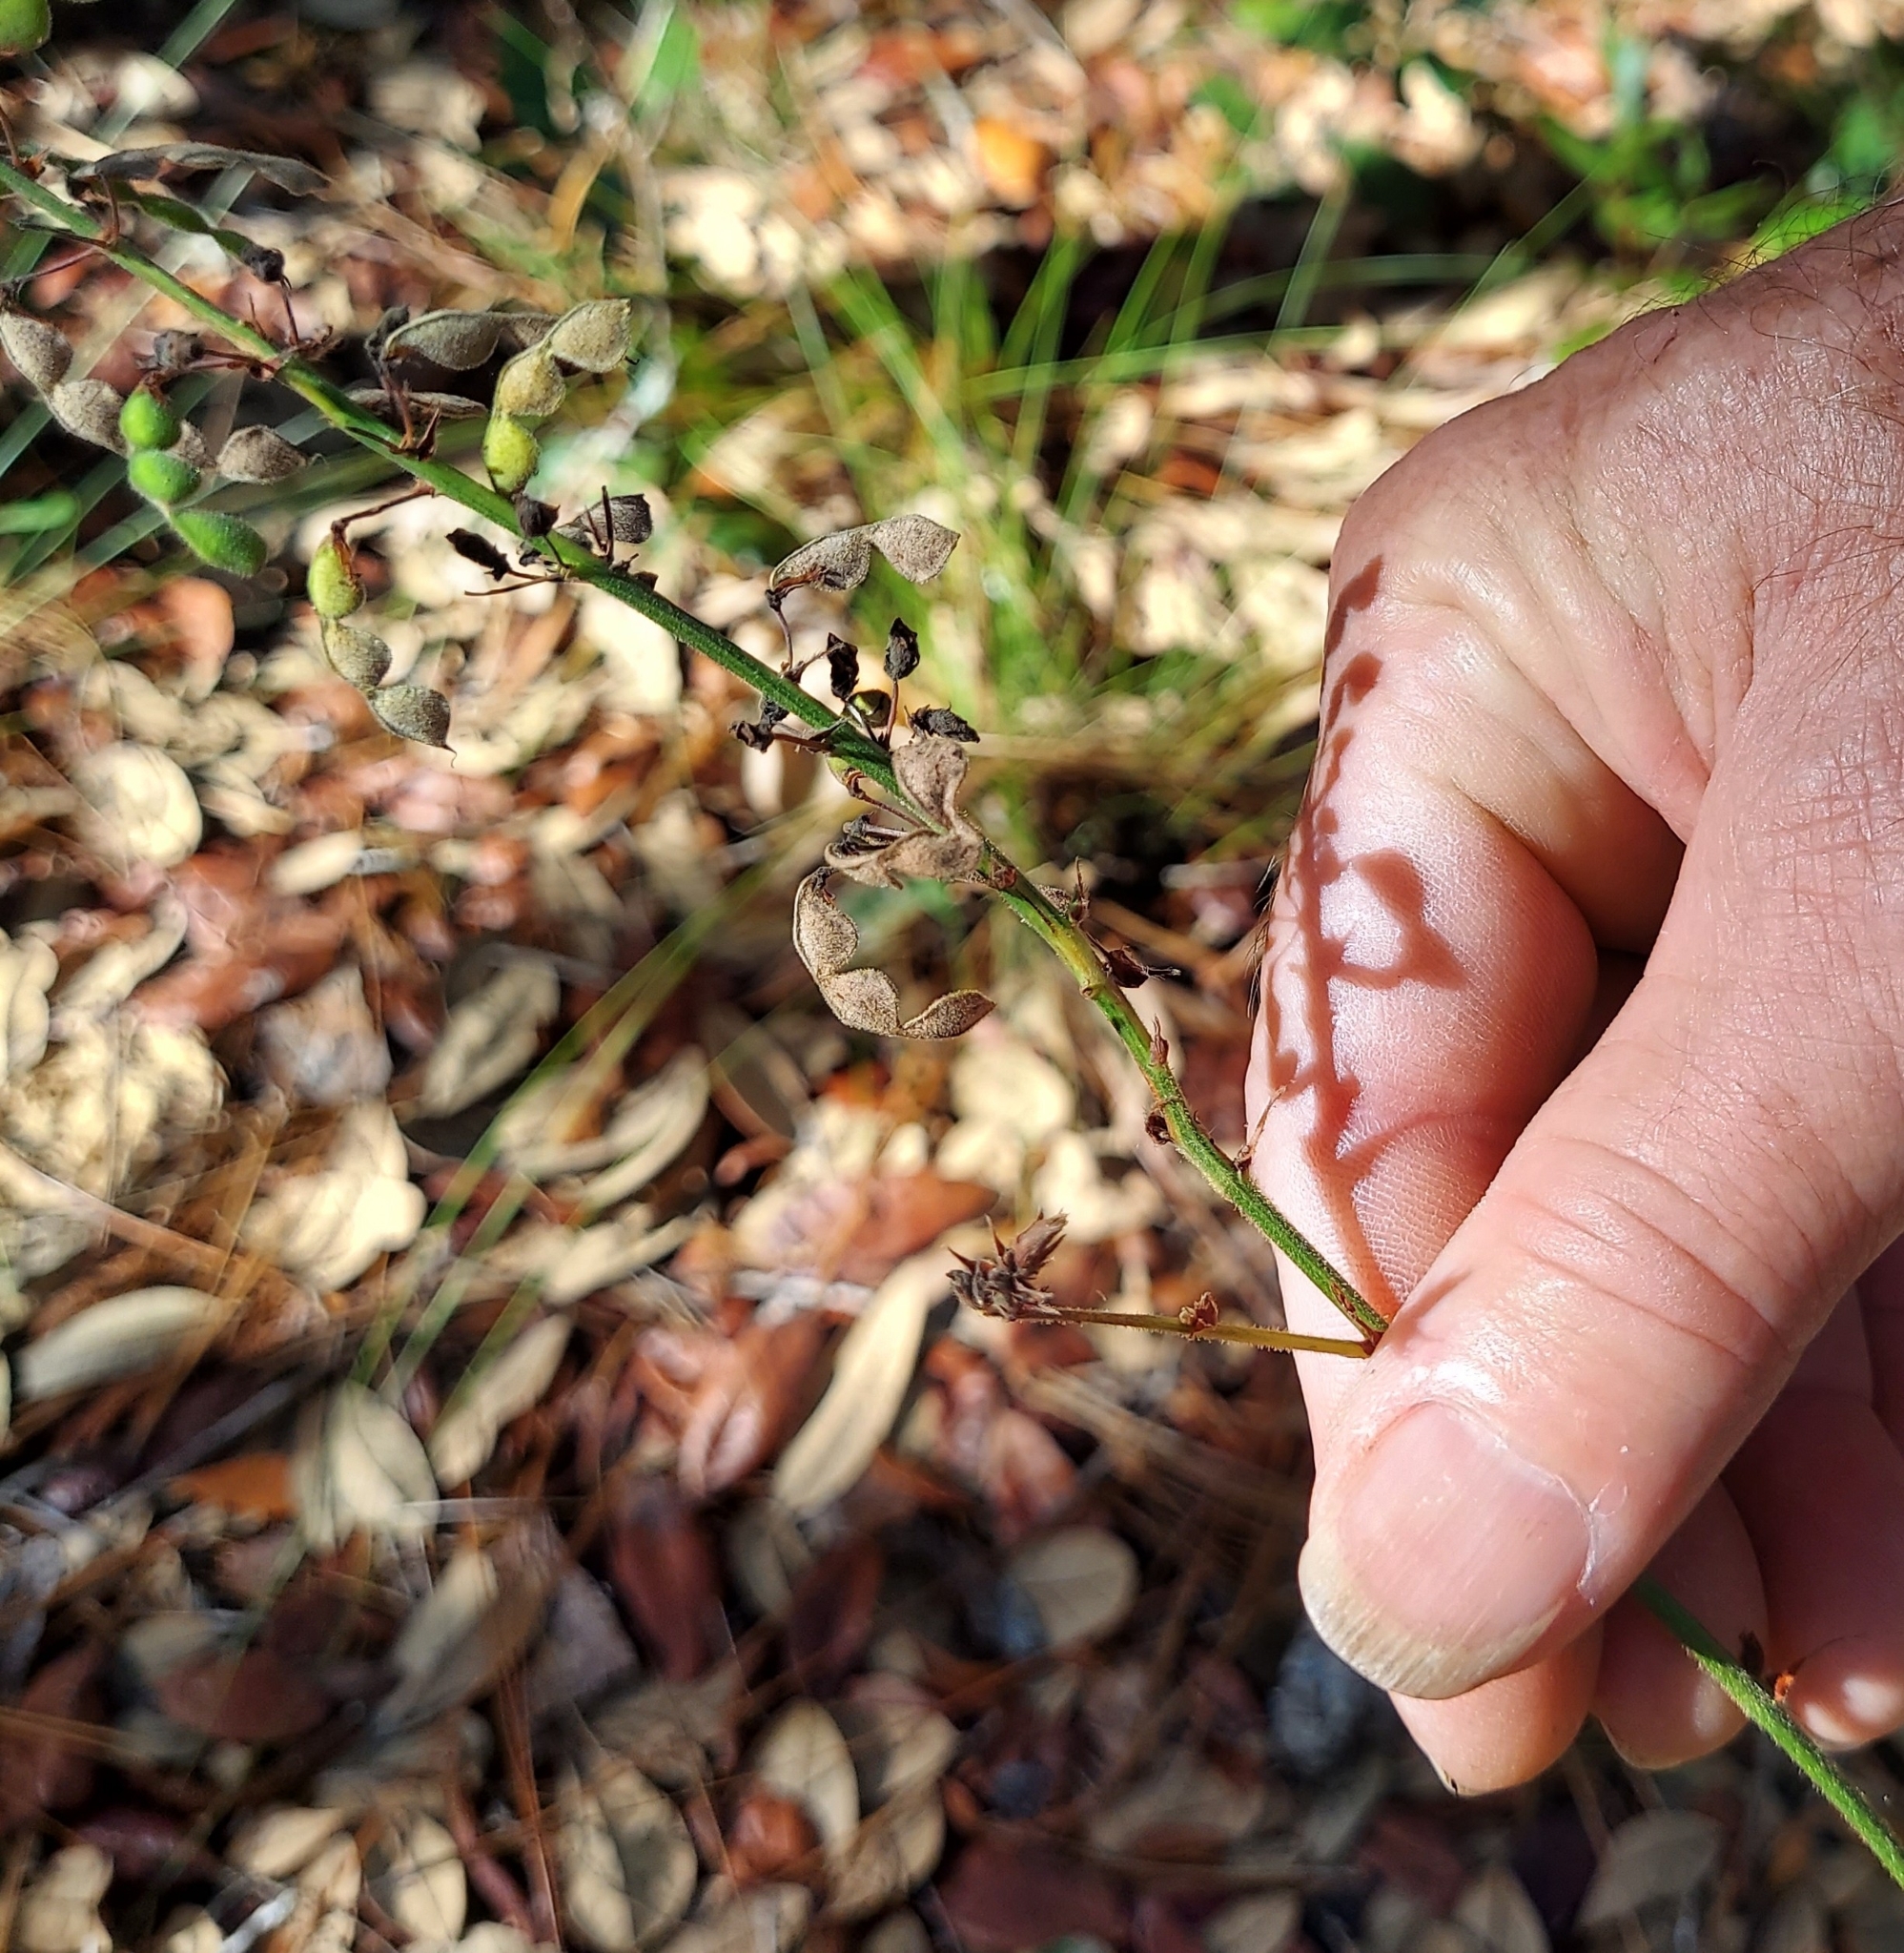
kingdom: Plantae
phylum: Tracheophyta
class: Magnoliopsida
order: Fabales
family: Fabaceae
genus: Desmodium
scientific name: Desmodium floridanum
